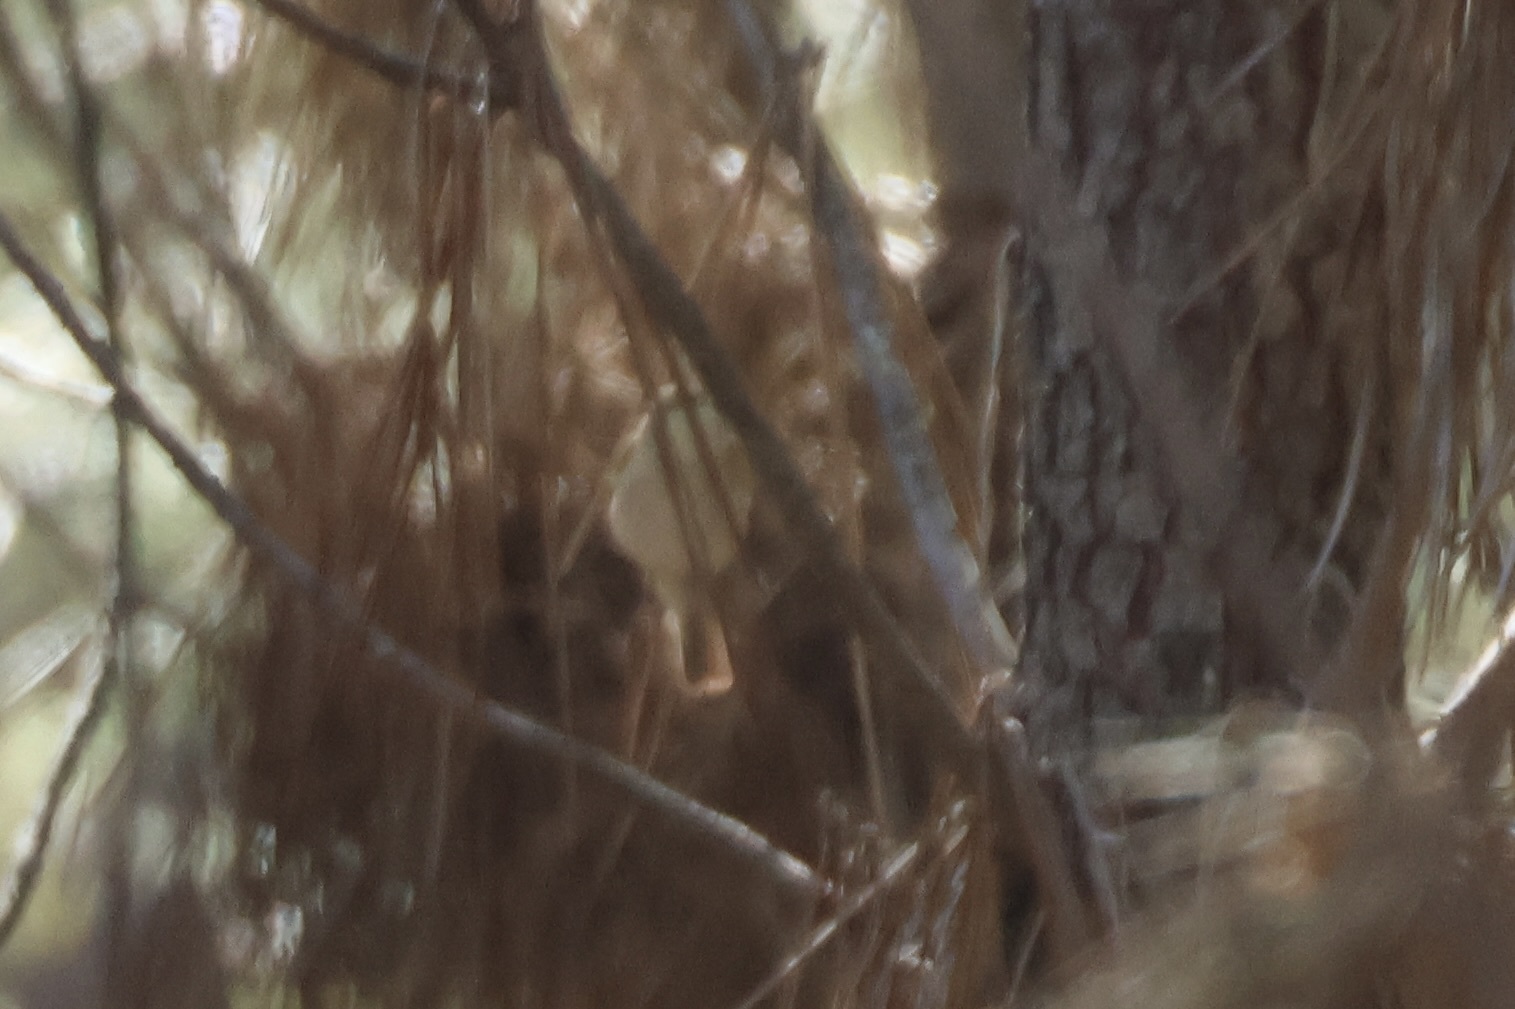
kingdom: Animalia
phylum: Chordata
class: Aves
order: Passeriformes
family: Phylloscopidae
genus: Phylloscopus
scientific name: Phylloscopus ibericus
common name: Iberian chiffchaff
